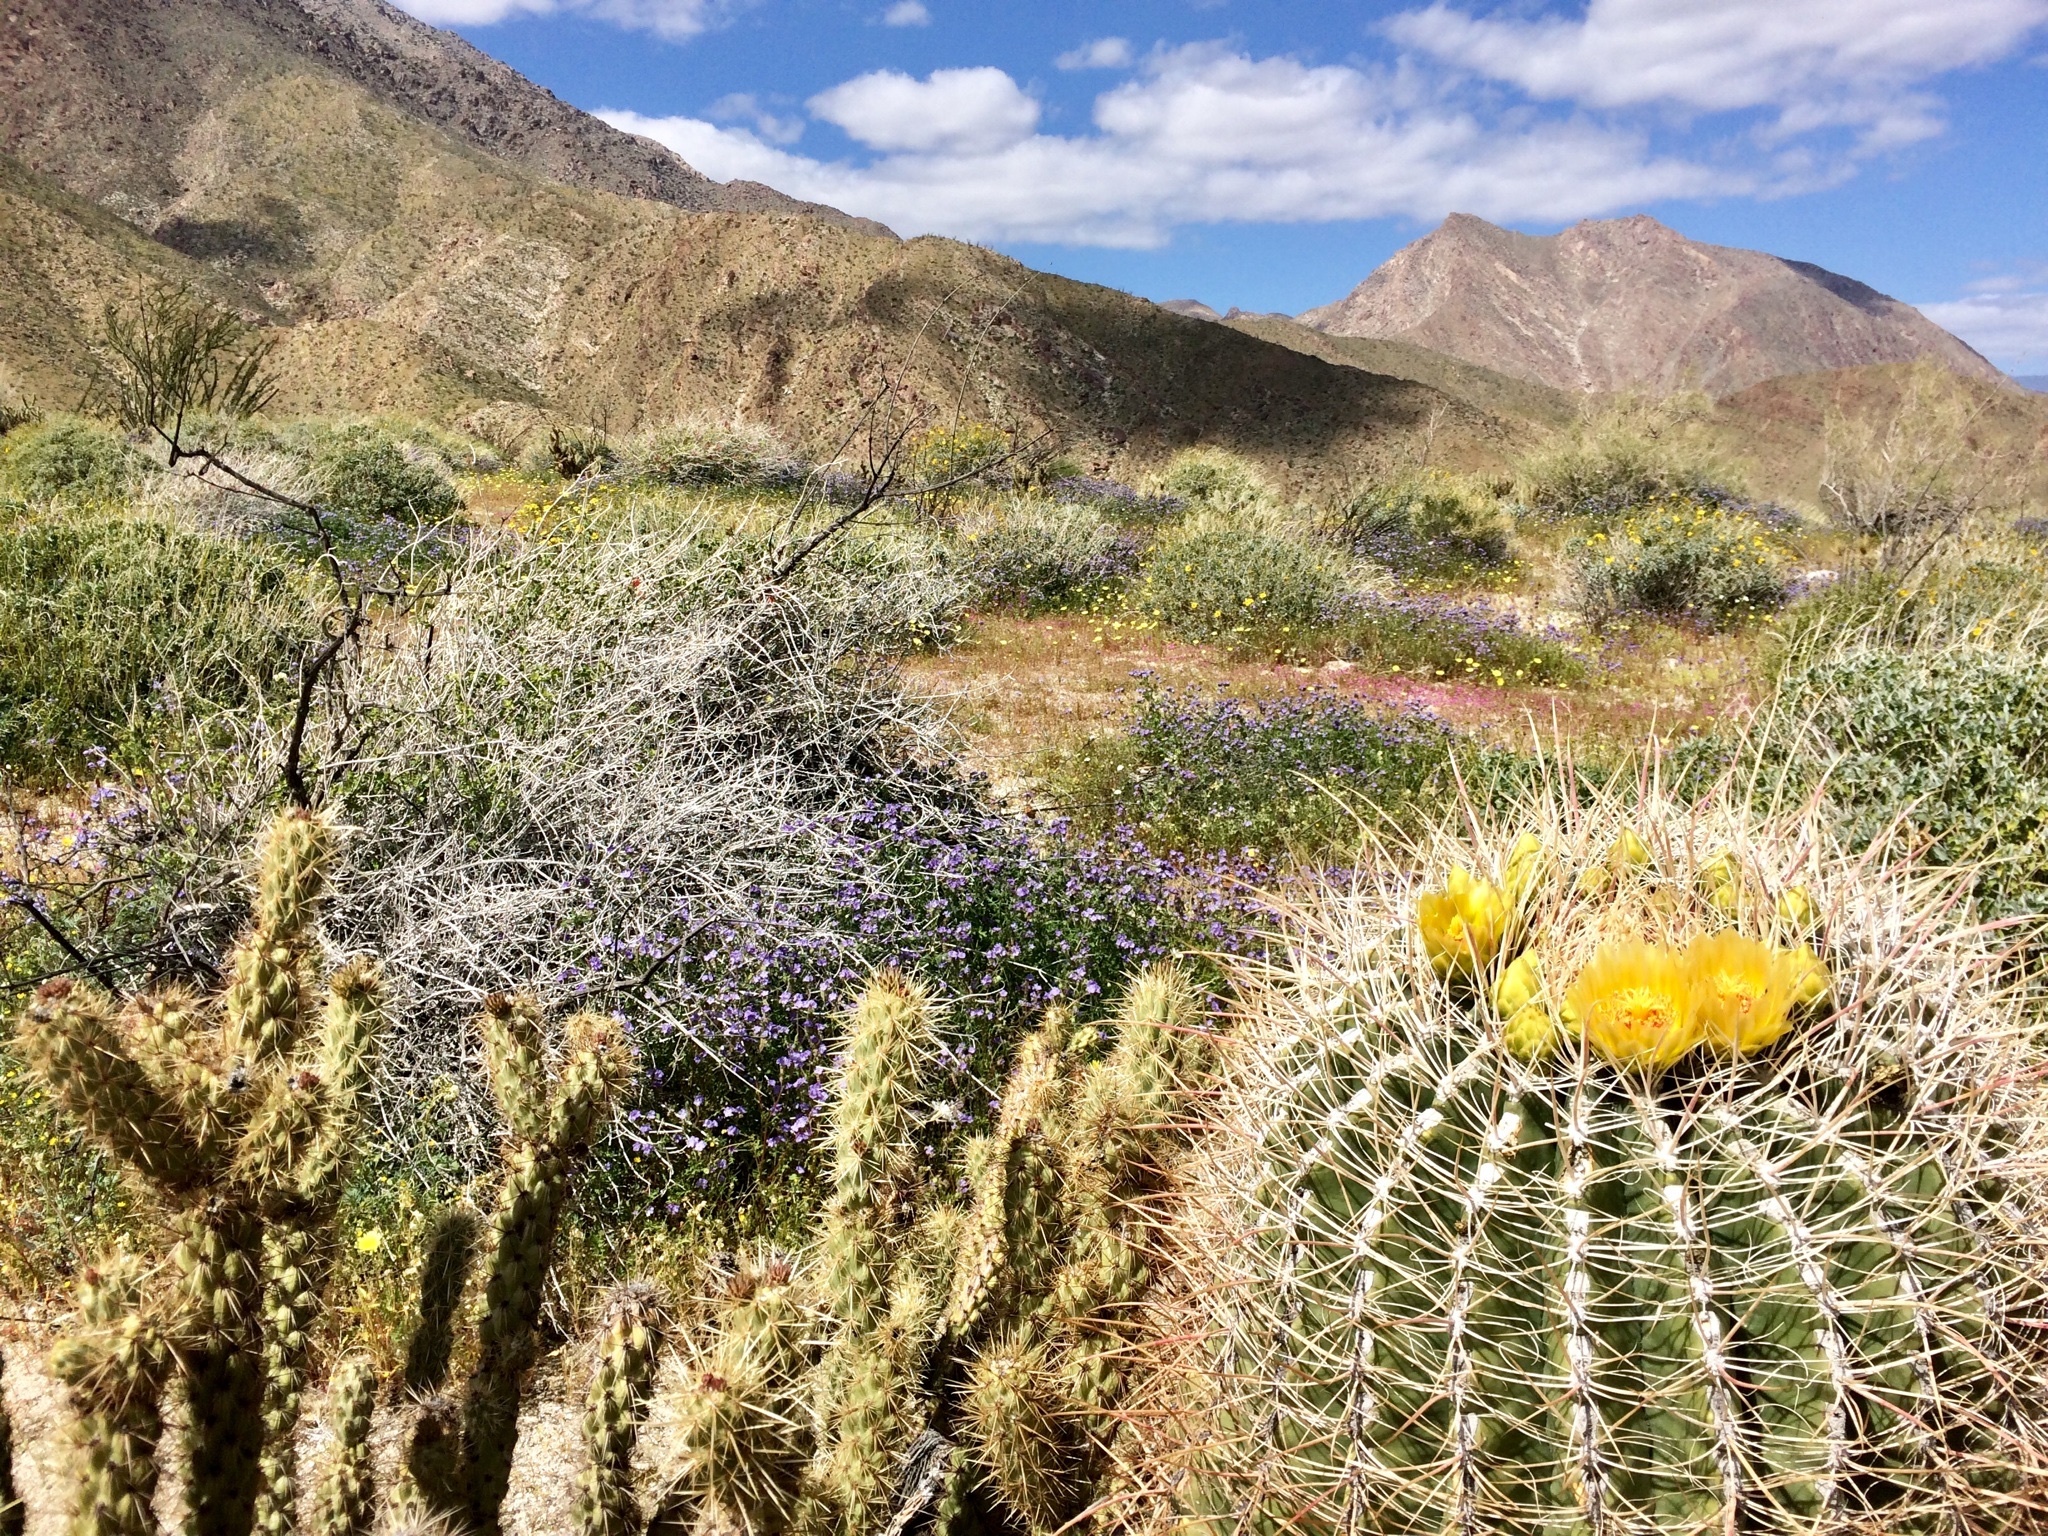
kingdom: Plantae
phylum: Tracheophyta
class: Magnoliopsida
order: Caryophyllales
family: Cactaceae
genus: Ferocactus
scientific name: Ferocactus cylindraceus
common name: California barrel cactus
